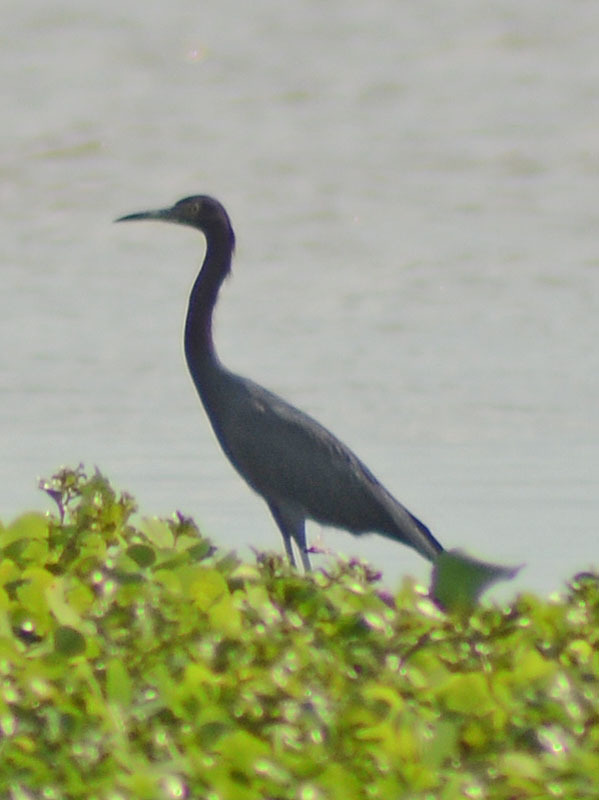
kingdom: Animalia
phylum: Chordata
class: Aves
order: Pelecaniformes
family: Ardeidae
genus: Egretta
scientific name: Egretta caerulea
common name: Little blue heron
